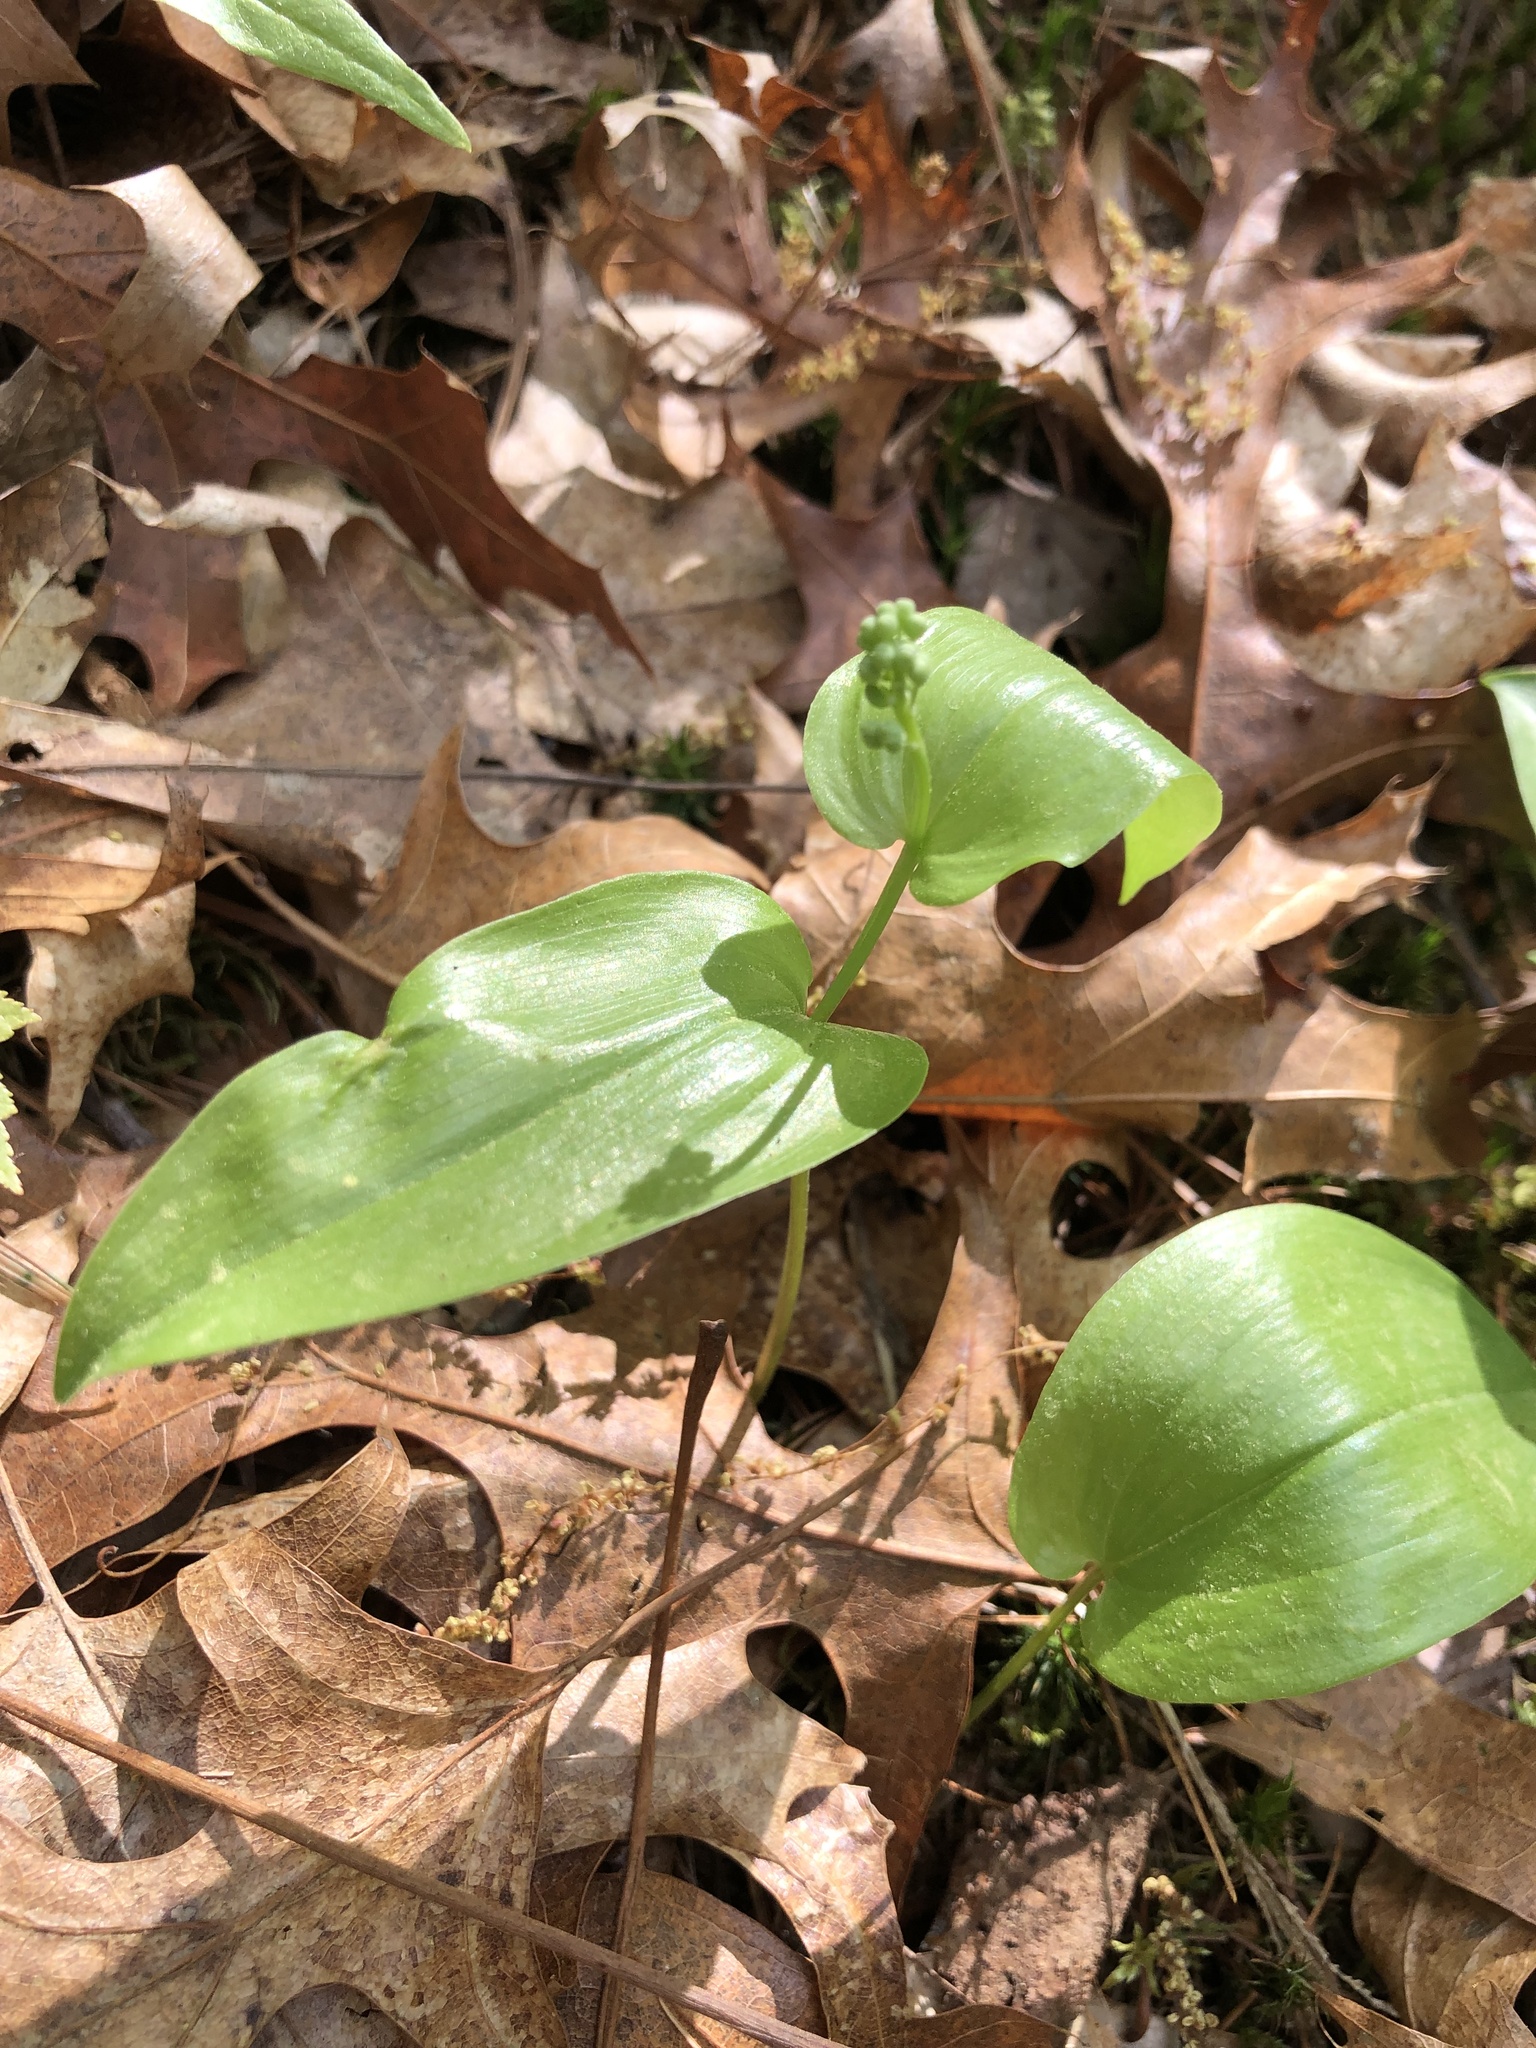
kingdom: Plantae
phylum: Tracheophyta
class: Liliopsida
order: Asparagales
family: Asparagaceae
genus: Maianthemum
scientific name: Maianthemum canadense
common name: False lily-of-the-valley
